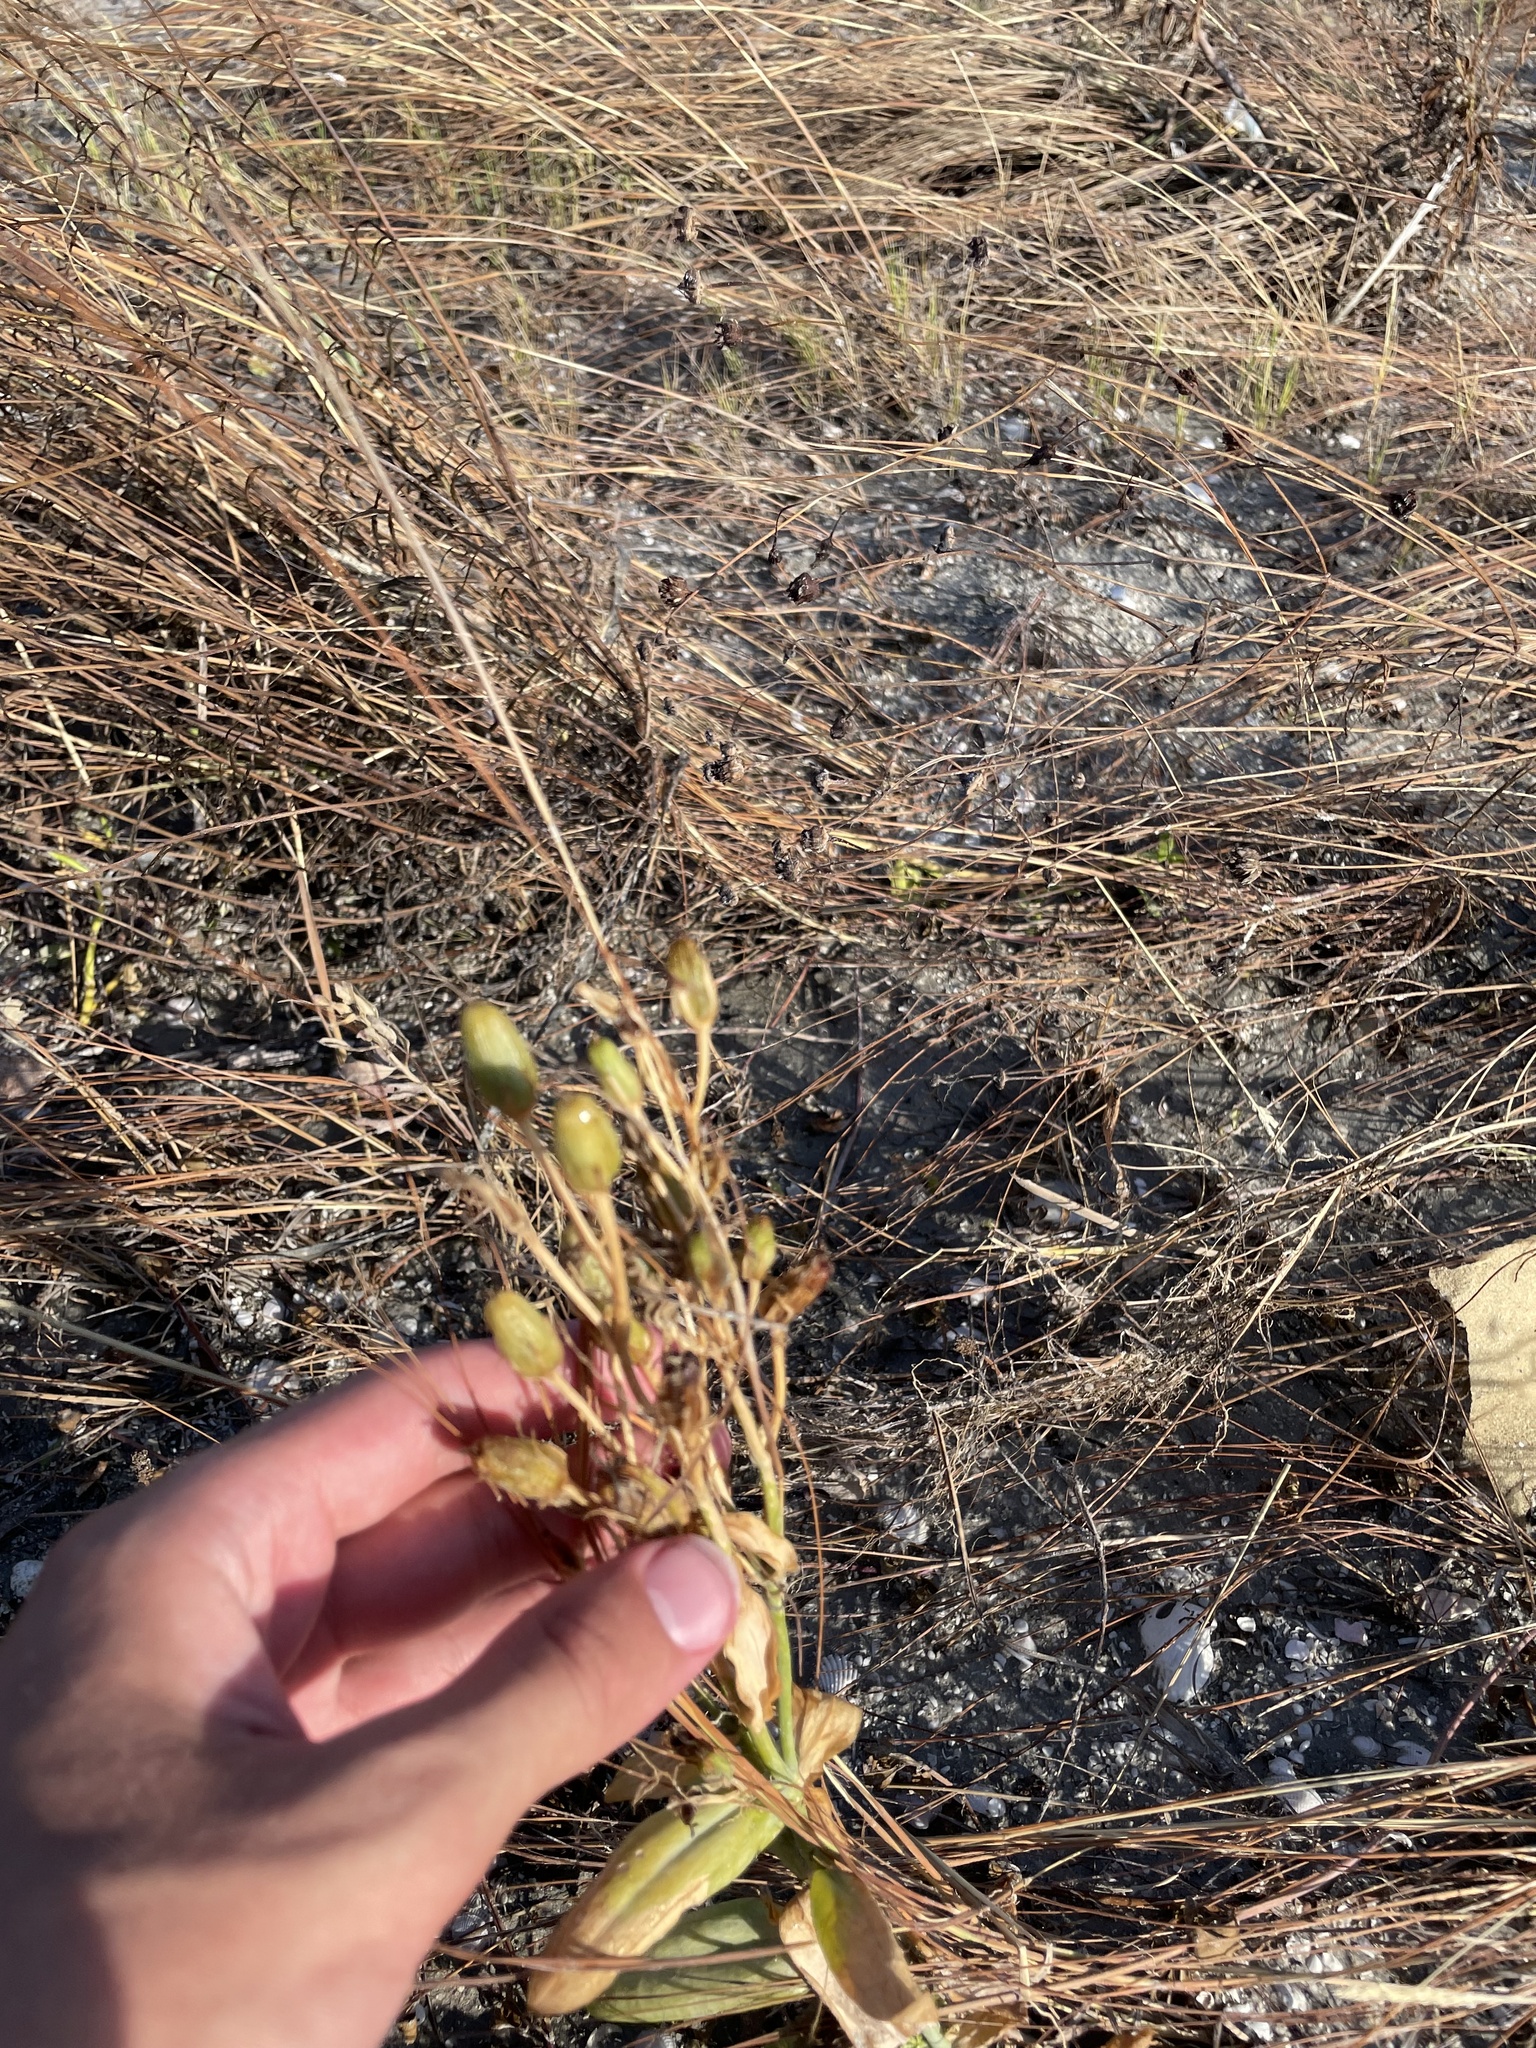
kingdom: Plantae
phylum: Tracheophyta
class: Magnoliopsida
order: Gentianales
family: Gentianaceae
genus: Eustoma
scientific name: Eustoma exaltatum
